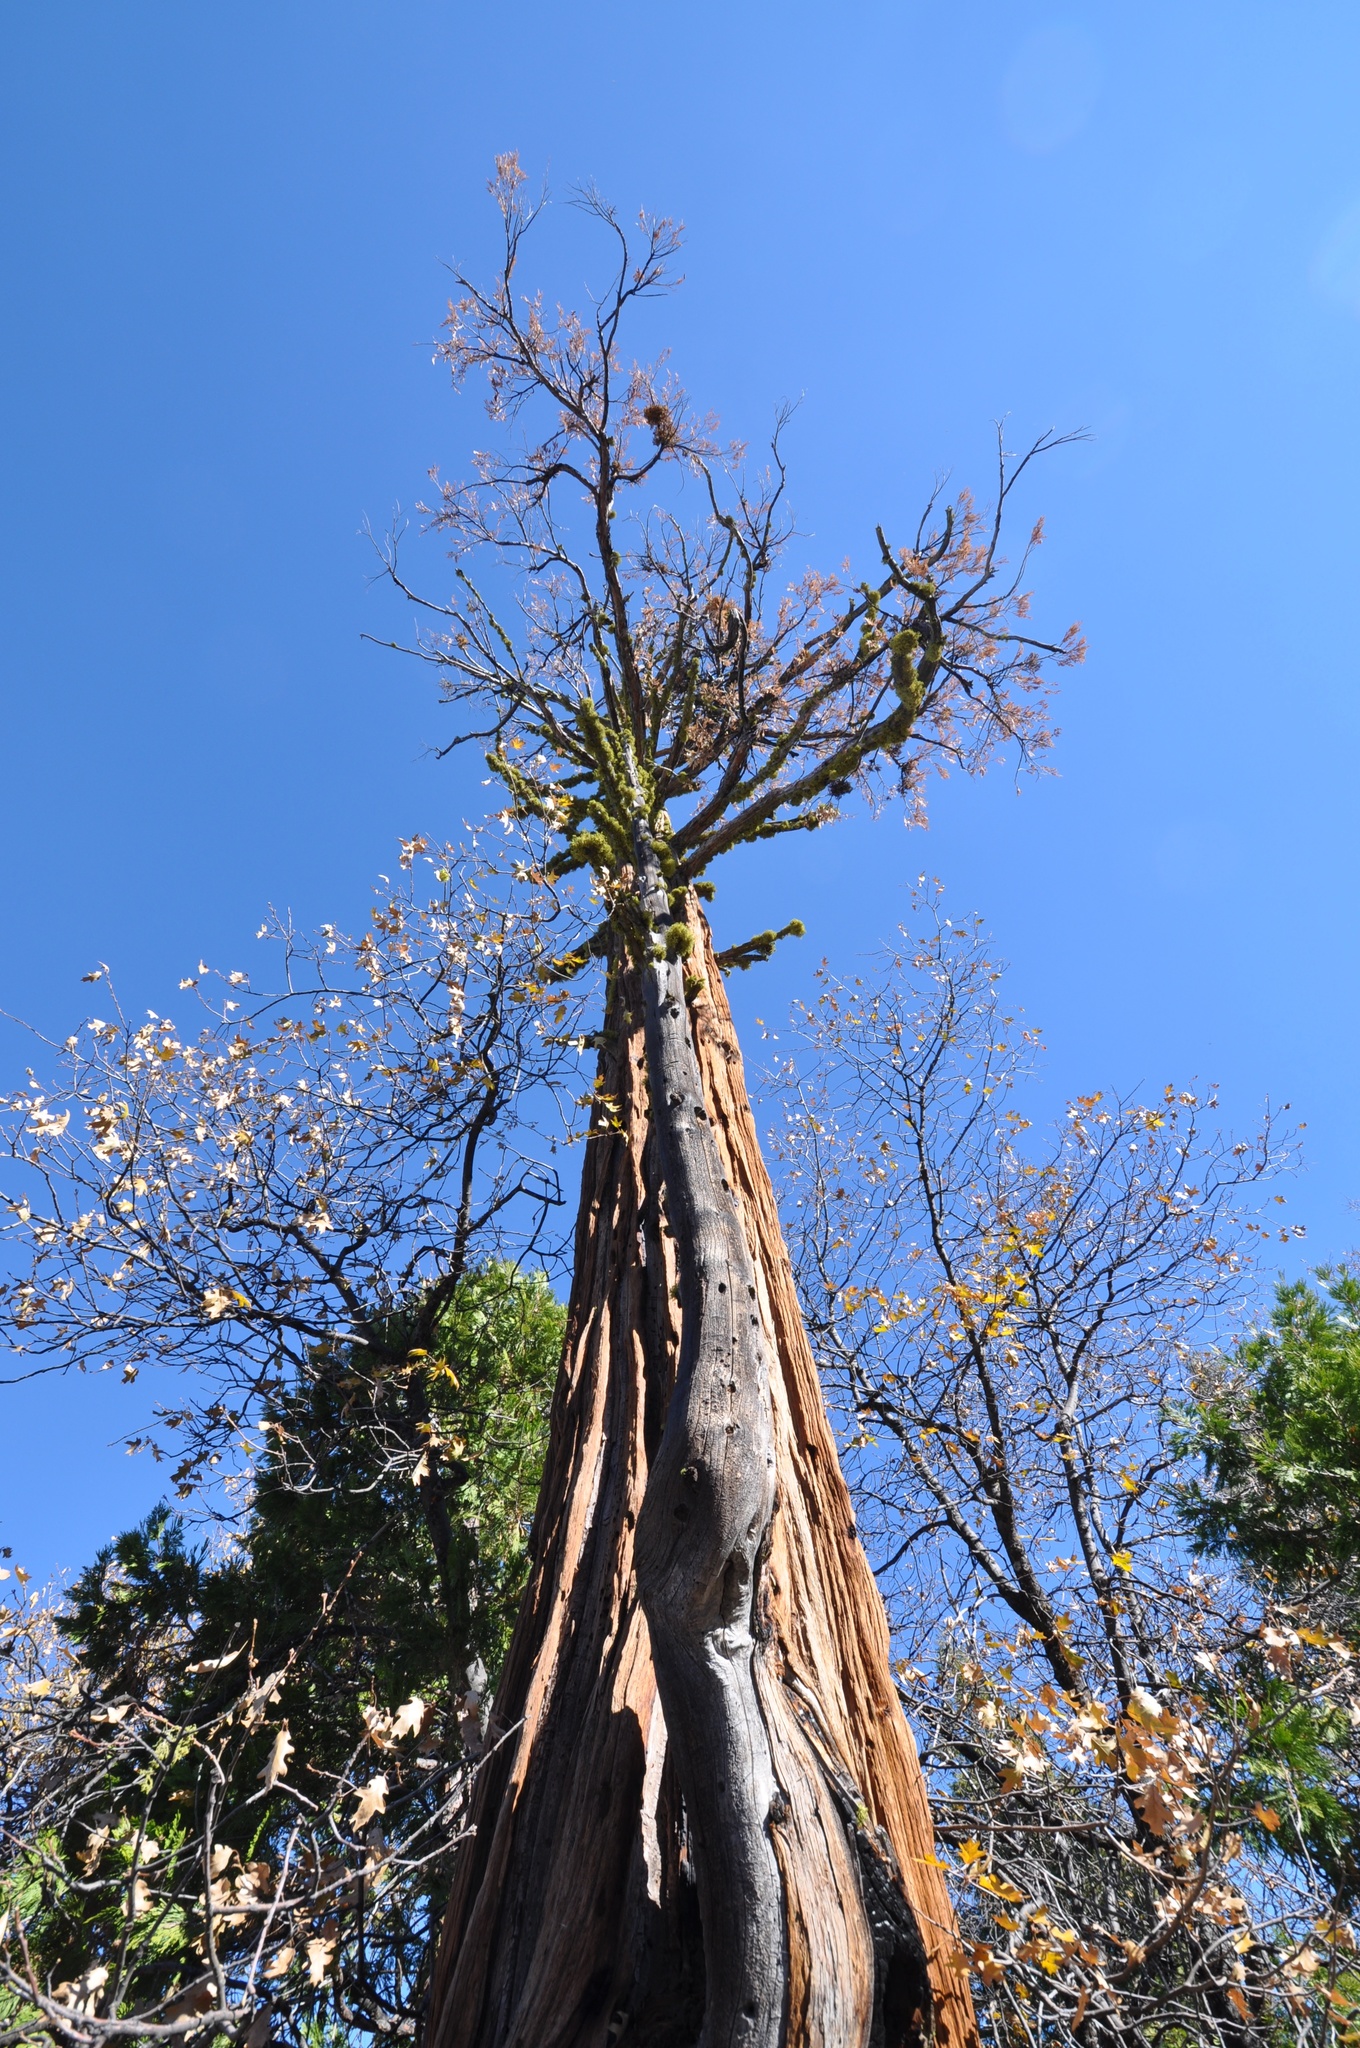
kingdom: Plantae
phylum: Tracheophyta
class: Pinopsida
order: Pinales
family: Cupressaceae
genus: Calocedrus
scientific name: Calocedrus decurrens
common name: Californian incense-cedar
